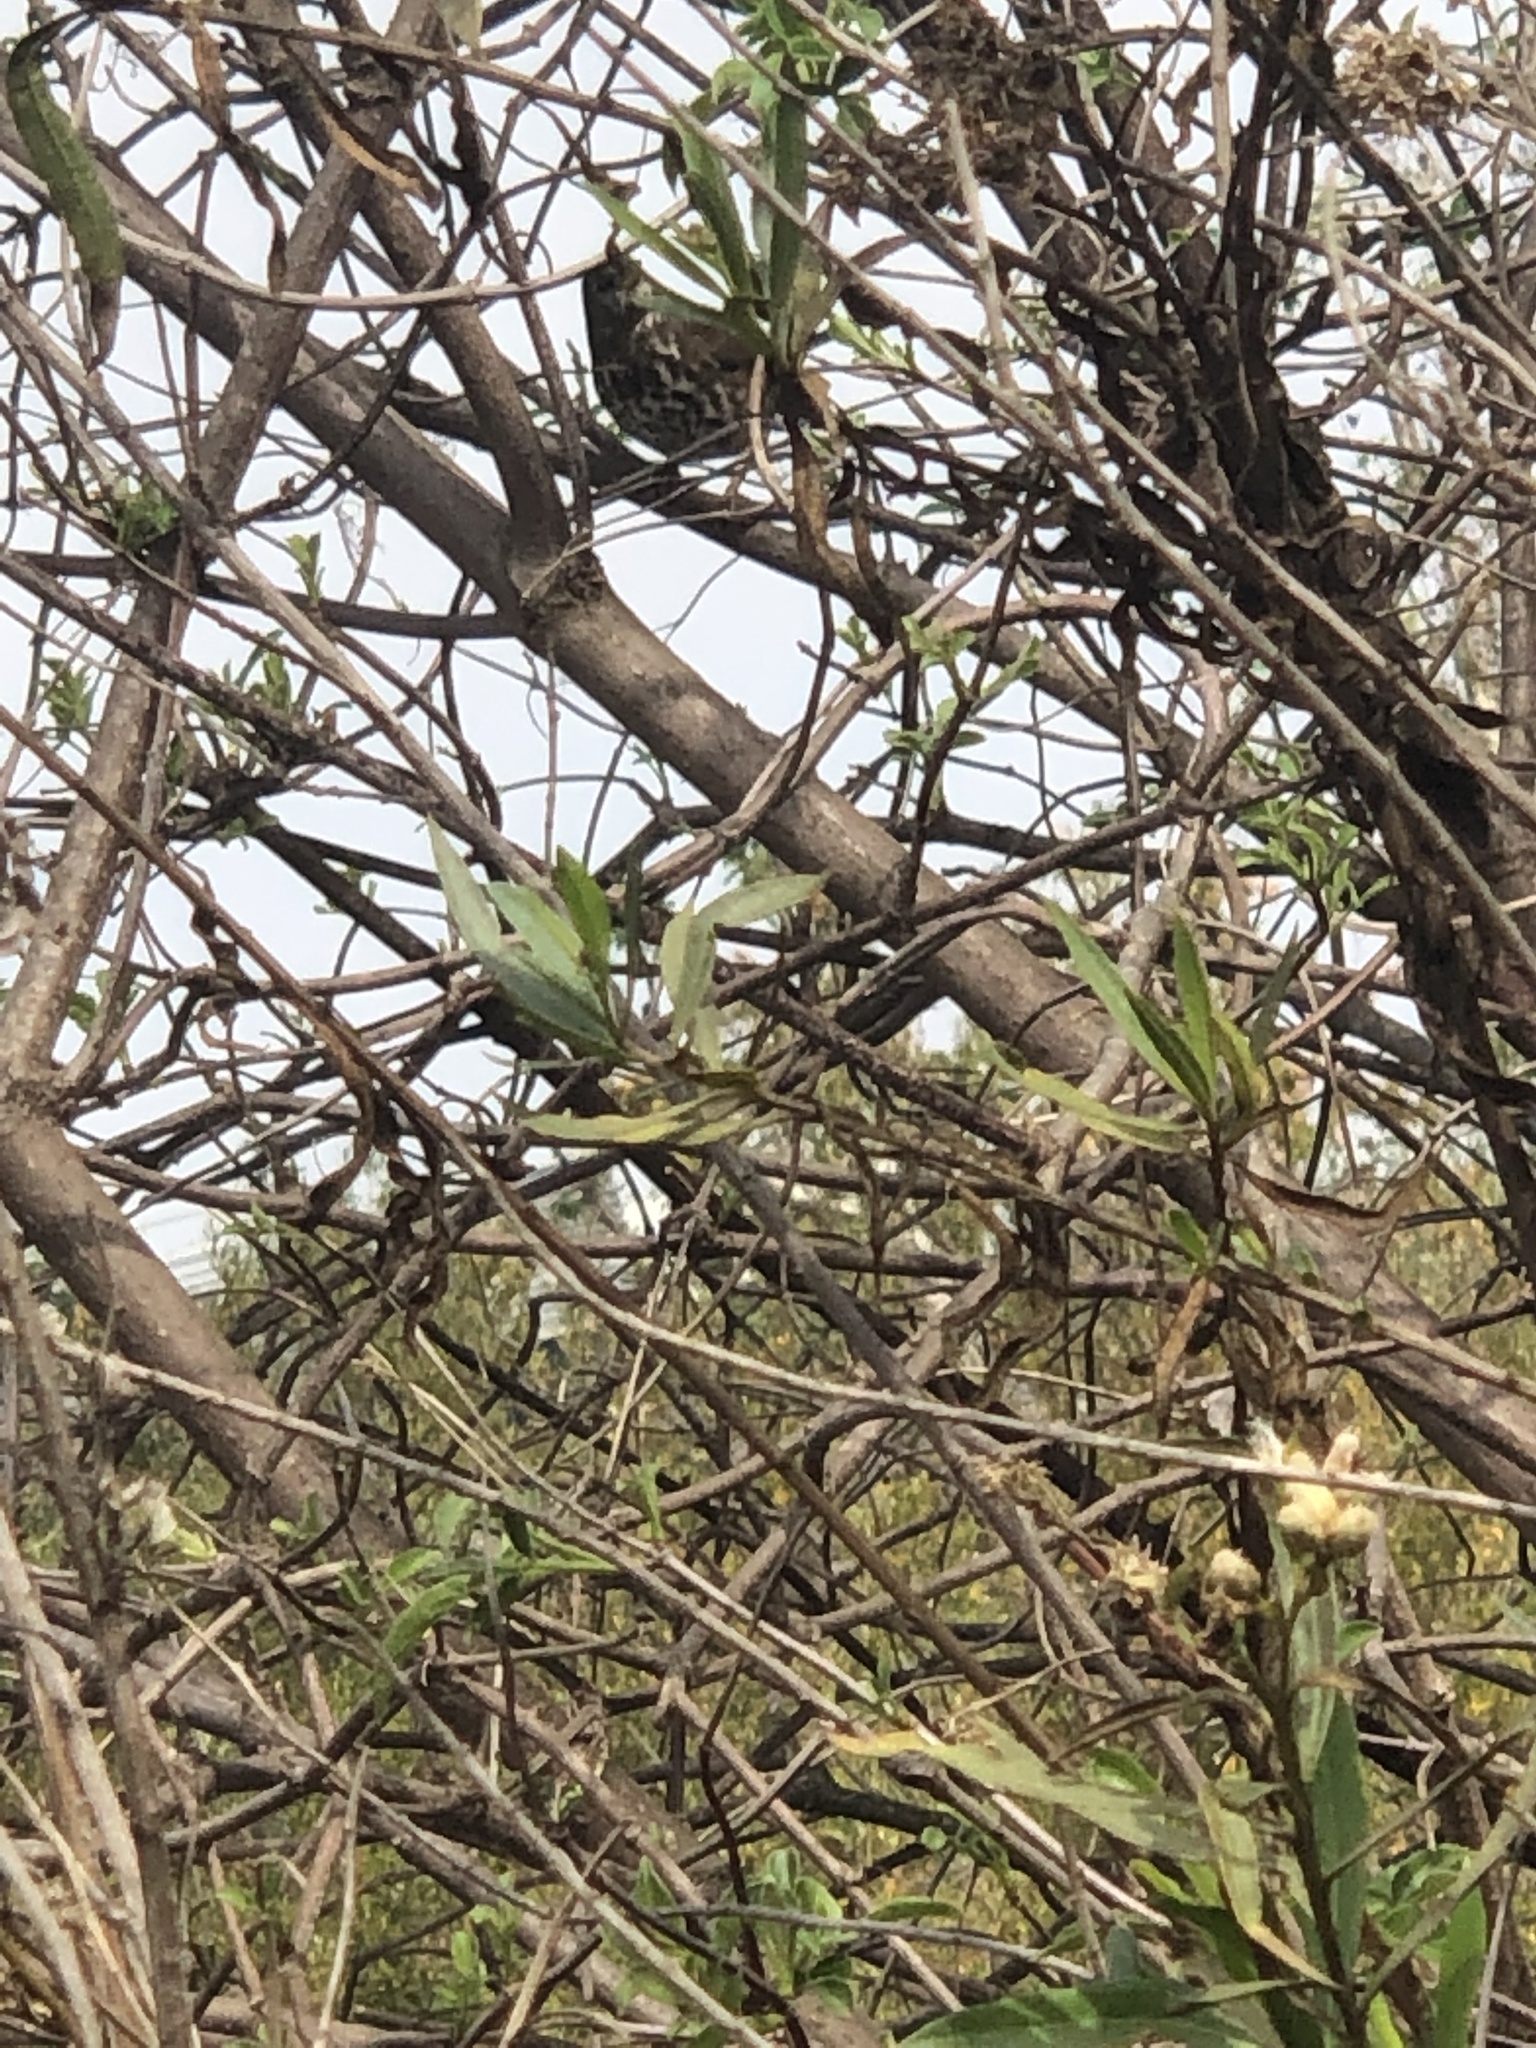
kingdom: Animalia
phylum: Chordata
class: Aves
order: Passeriformes
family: Passerellidae
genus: Passerella
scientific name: Passerella iliaca
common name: Fox sparrow
